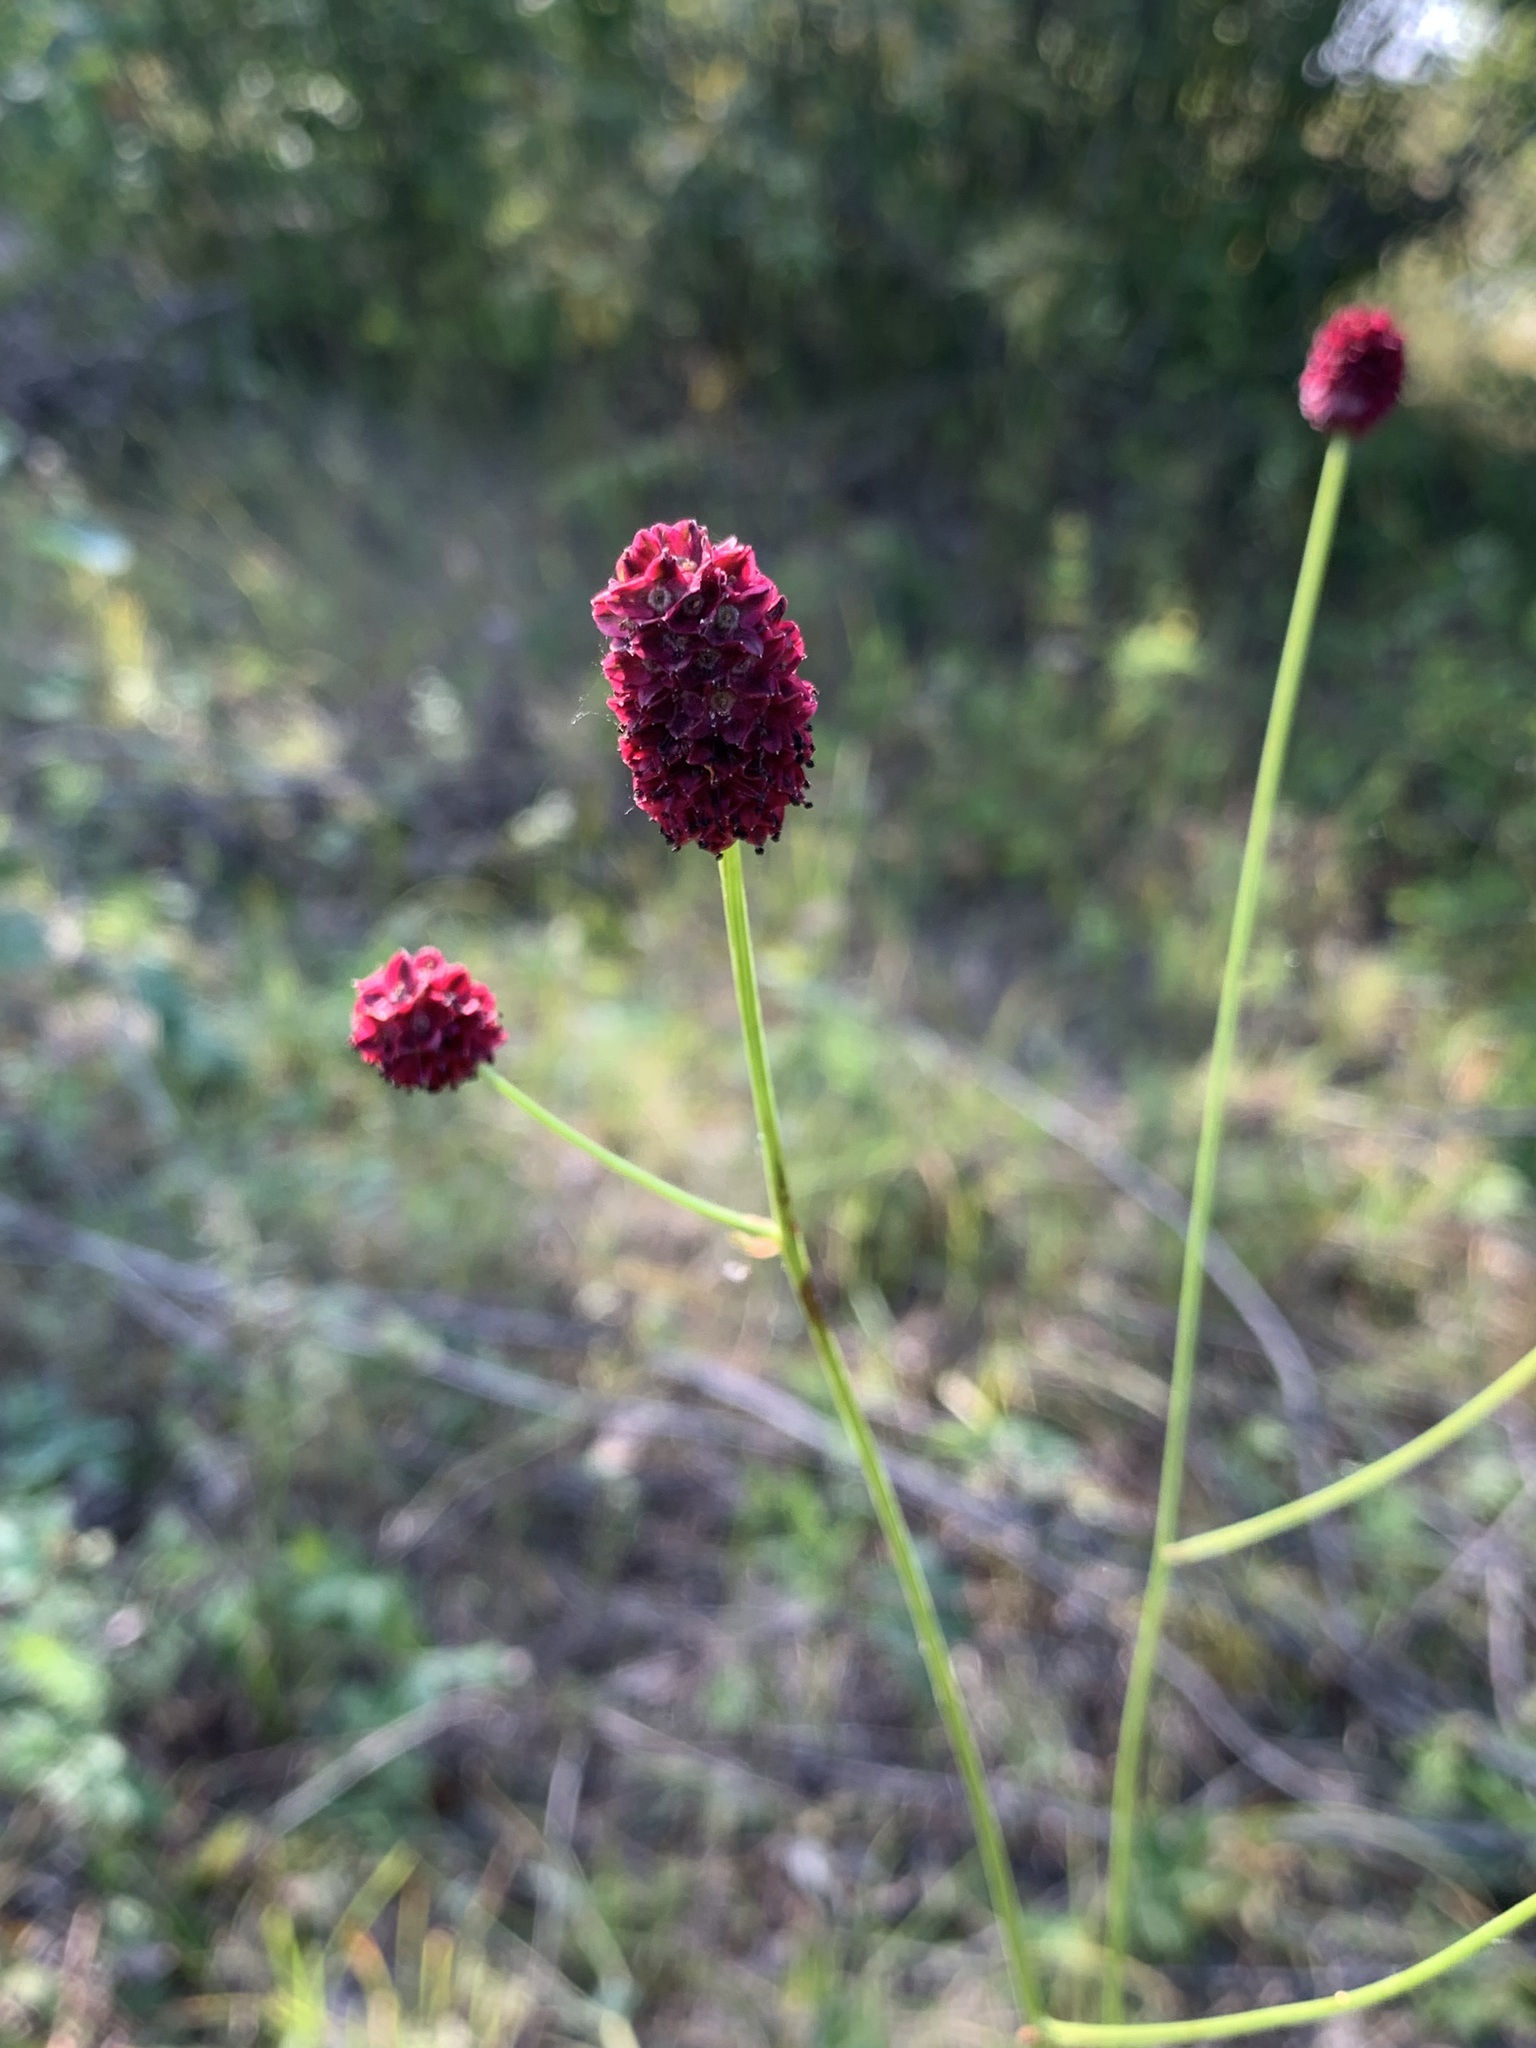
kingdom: Plantae
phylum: Tracheophyta
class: Magnoliopsida
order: Rosales
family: Rosaceae
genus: Sanguisorba
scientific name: Sanguisorba officinalis
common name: Great burnet
